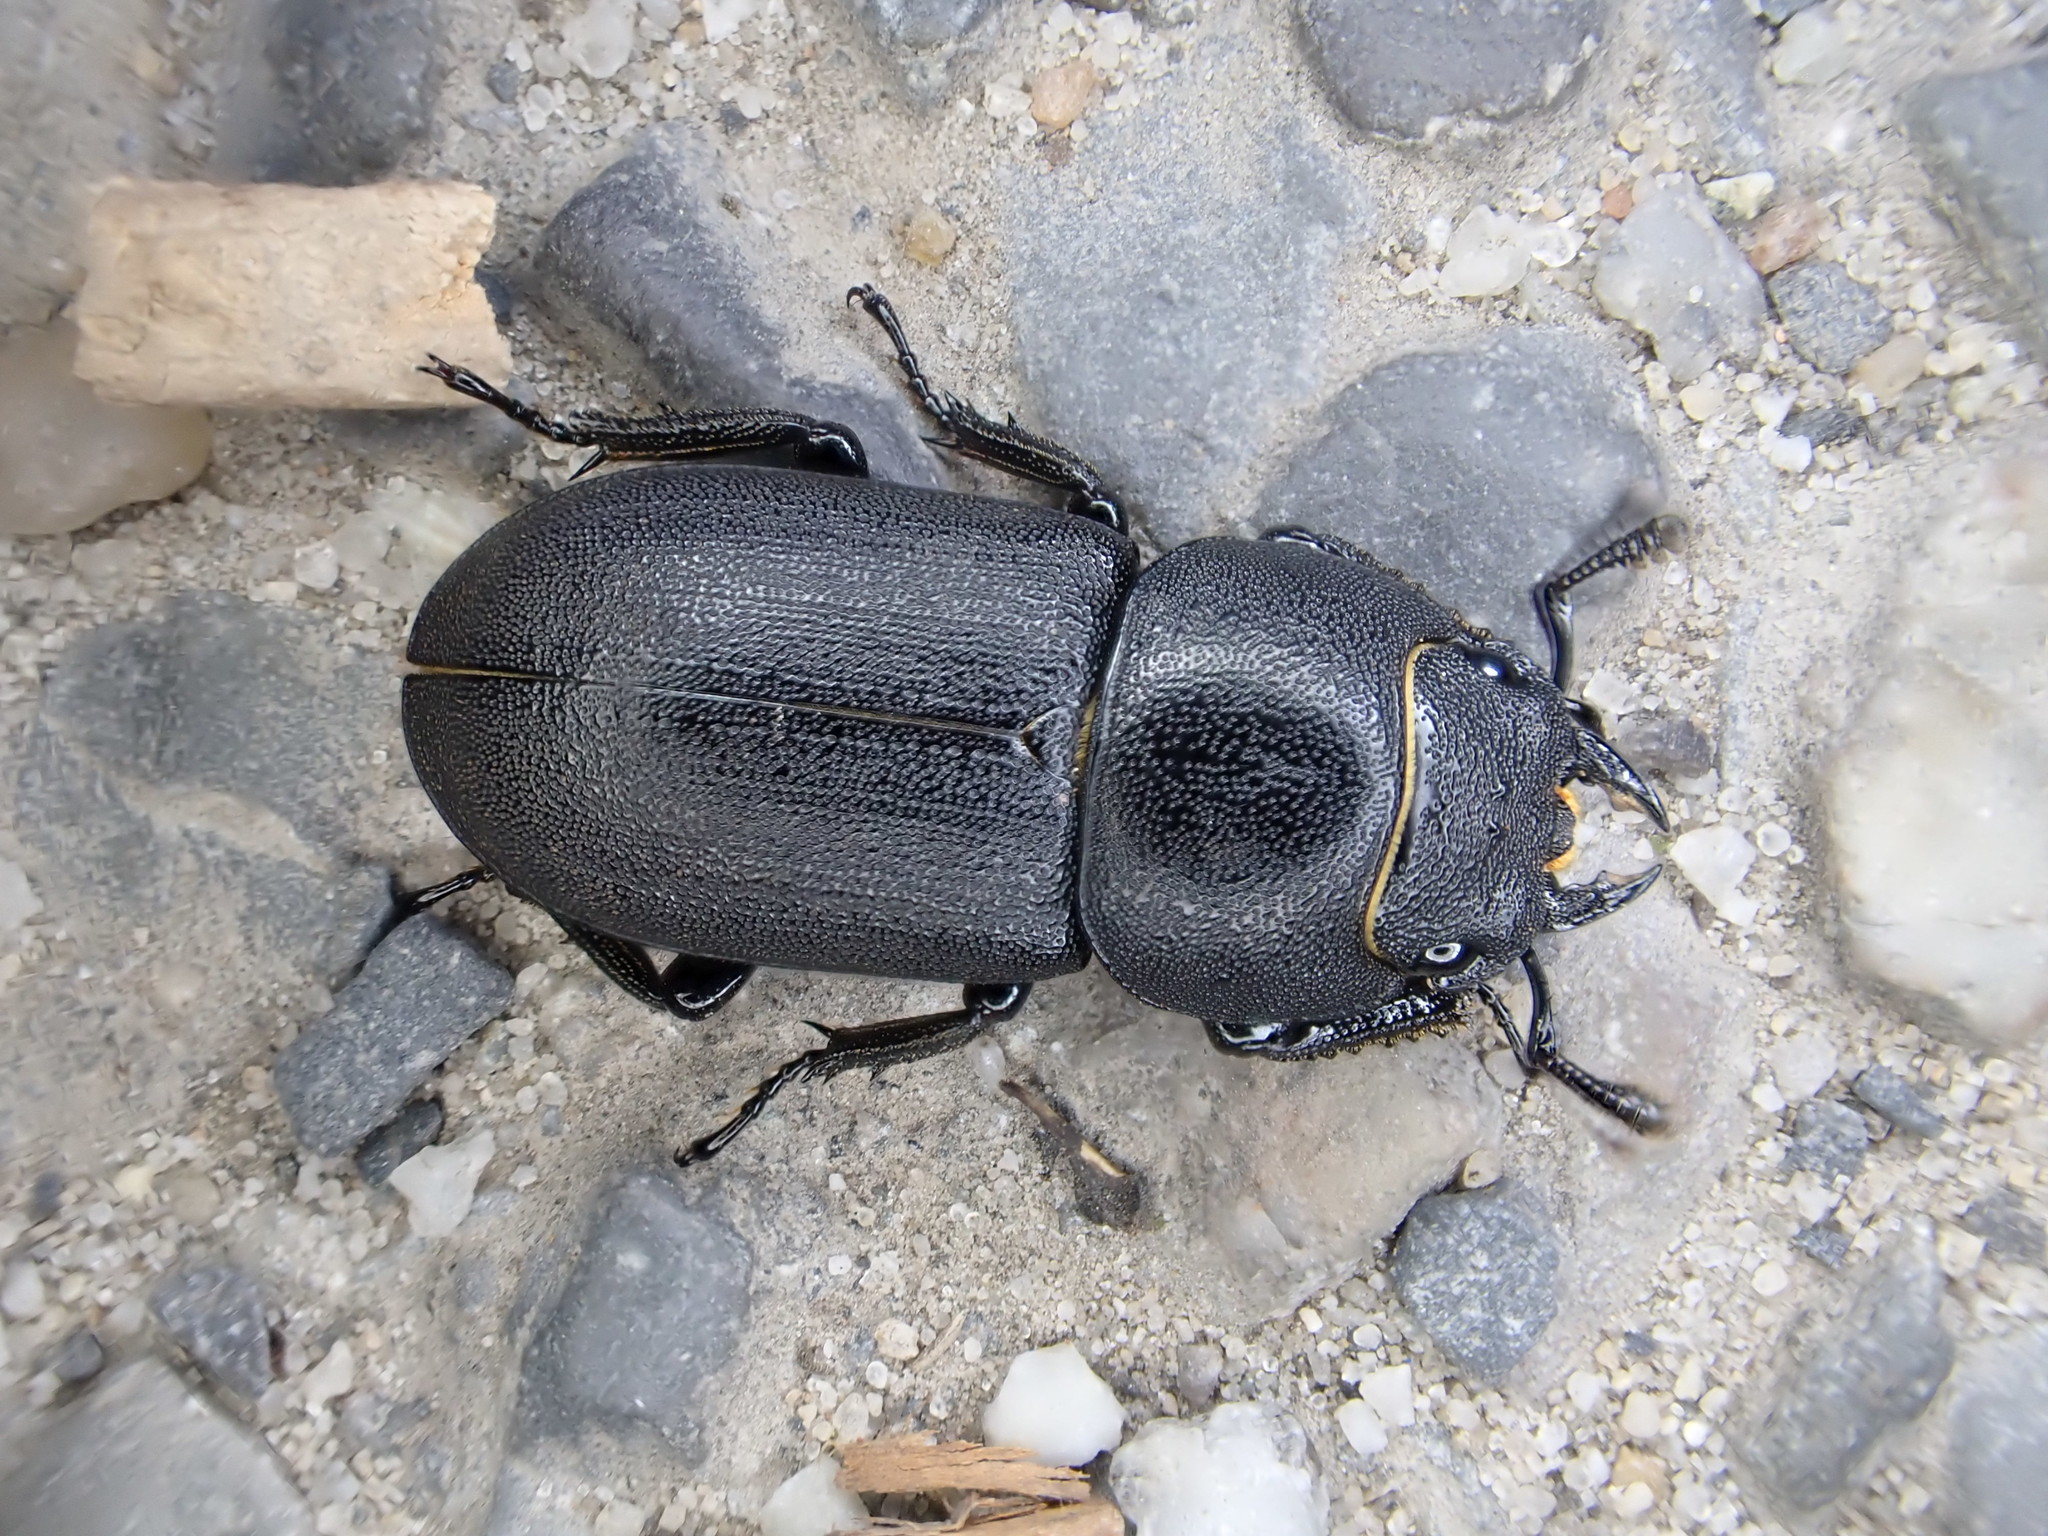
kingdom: Animalia
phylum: Arthropoda
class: Insecta
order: Coleoptera
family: Lucanidae
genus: Dorcus
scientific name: Dorcus parallelipipedus
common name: Lesser stag beetle
